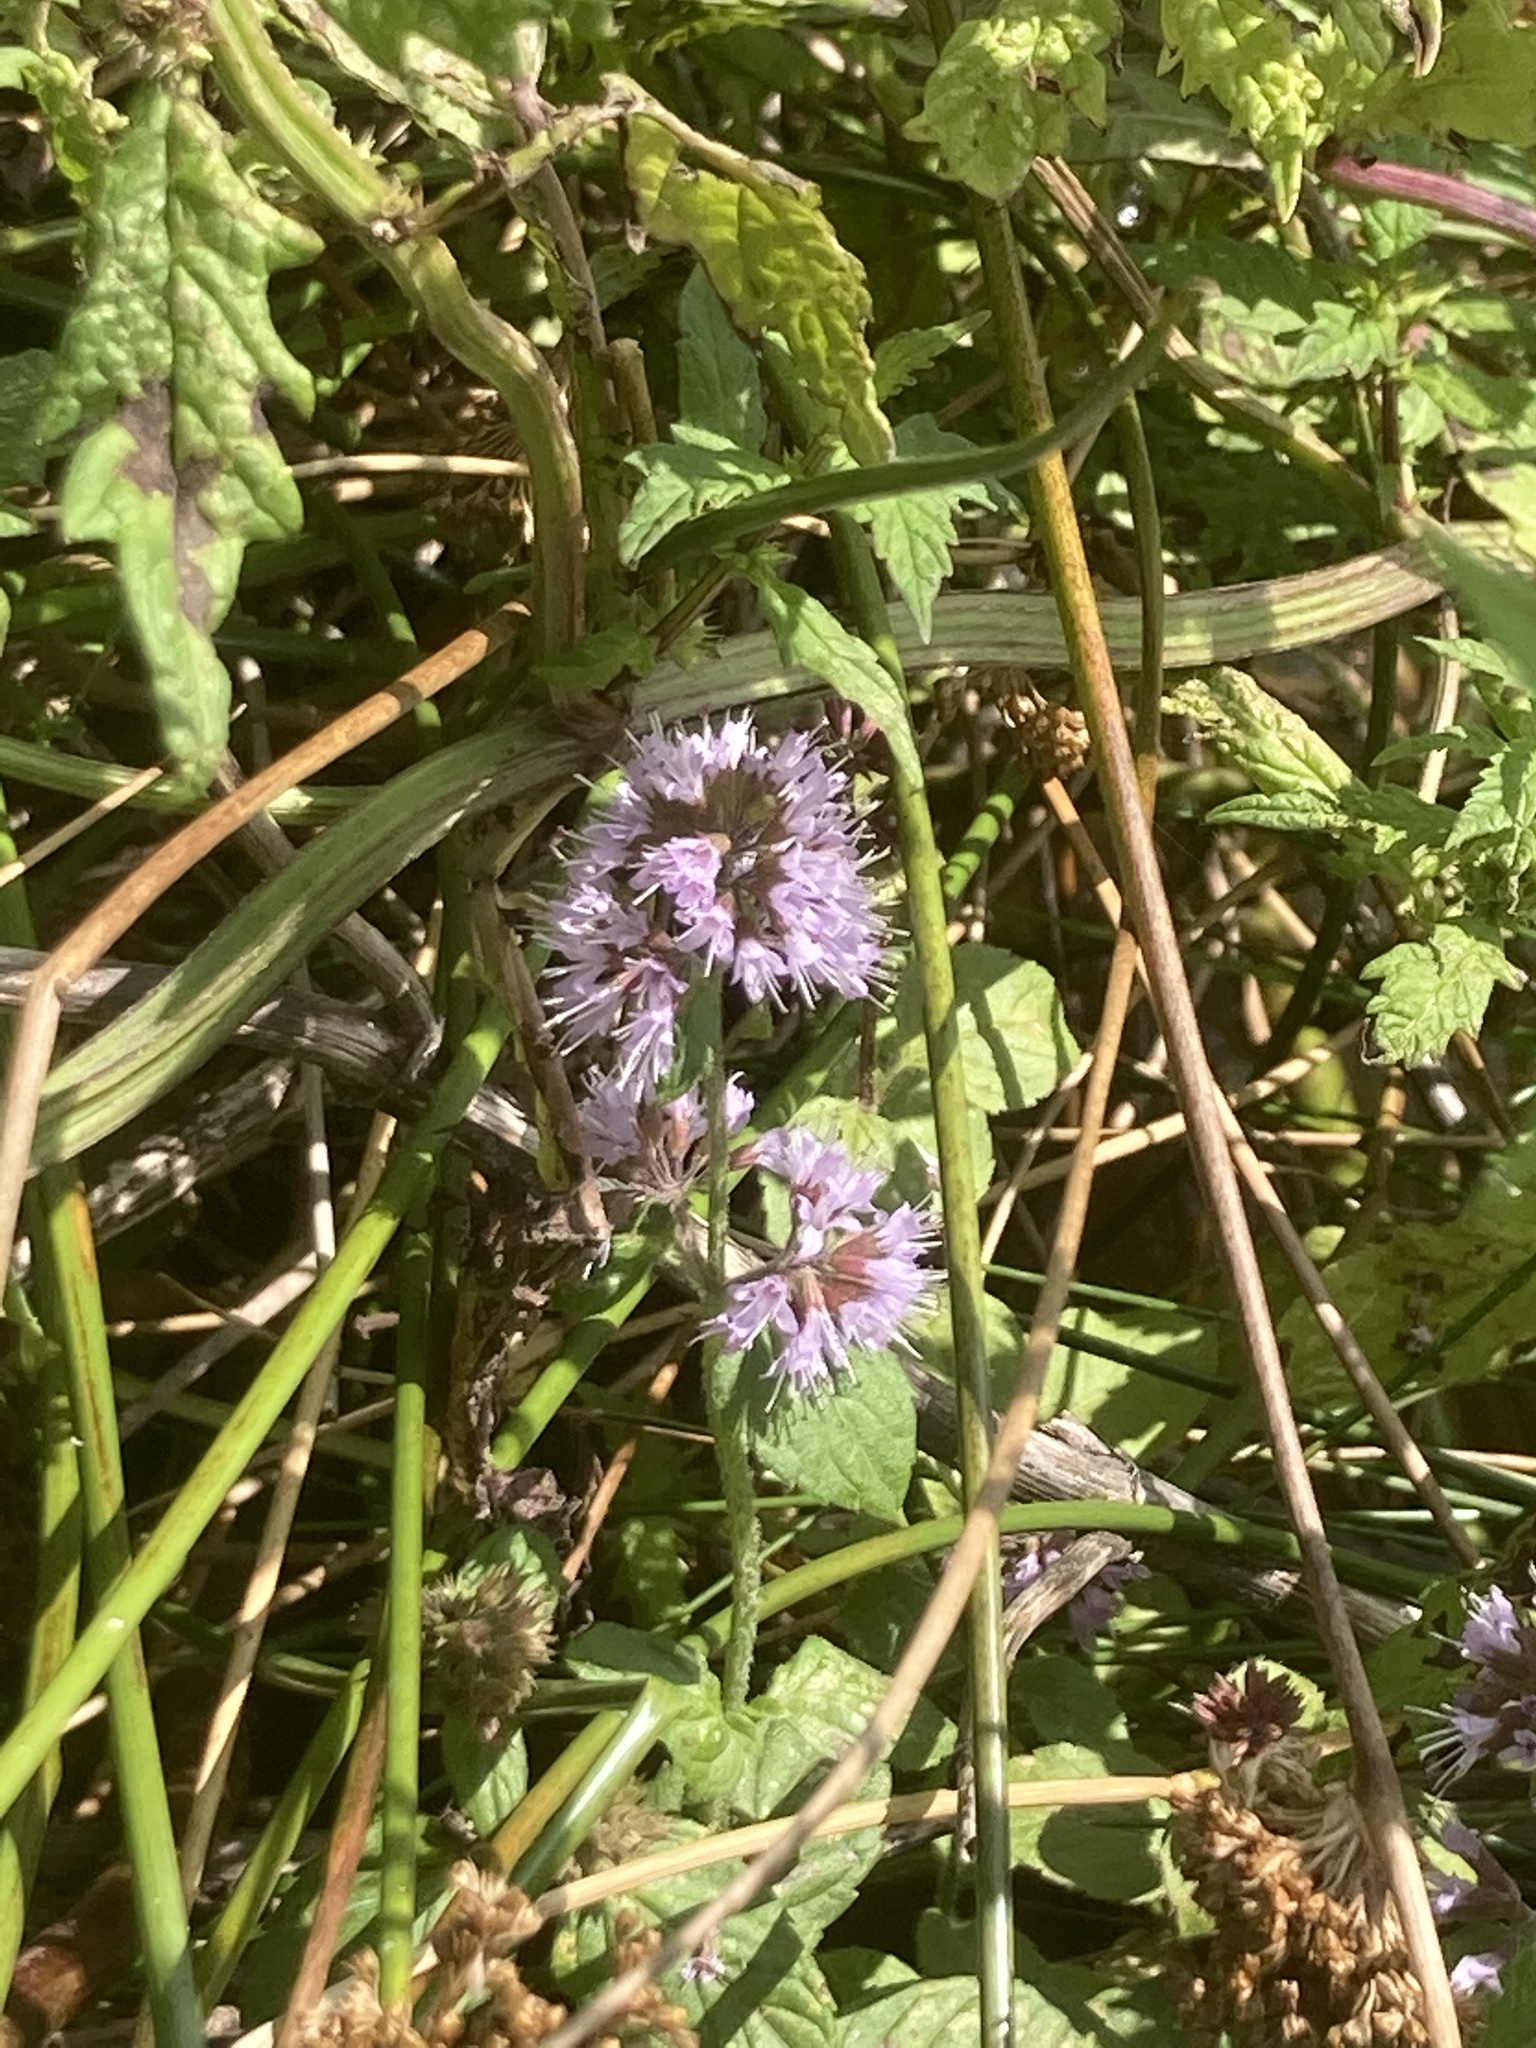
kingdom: Plantae
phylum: Tracheophyta
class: Magnoliopsida
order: Lamiales
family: Lamiaceae
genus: Mentha
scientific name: Mentha aquatica
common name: Water mint
